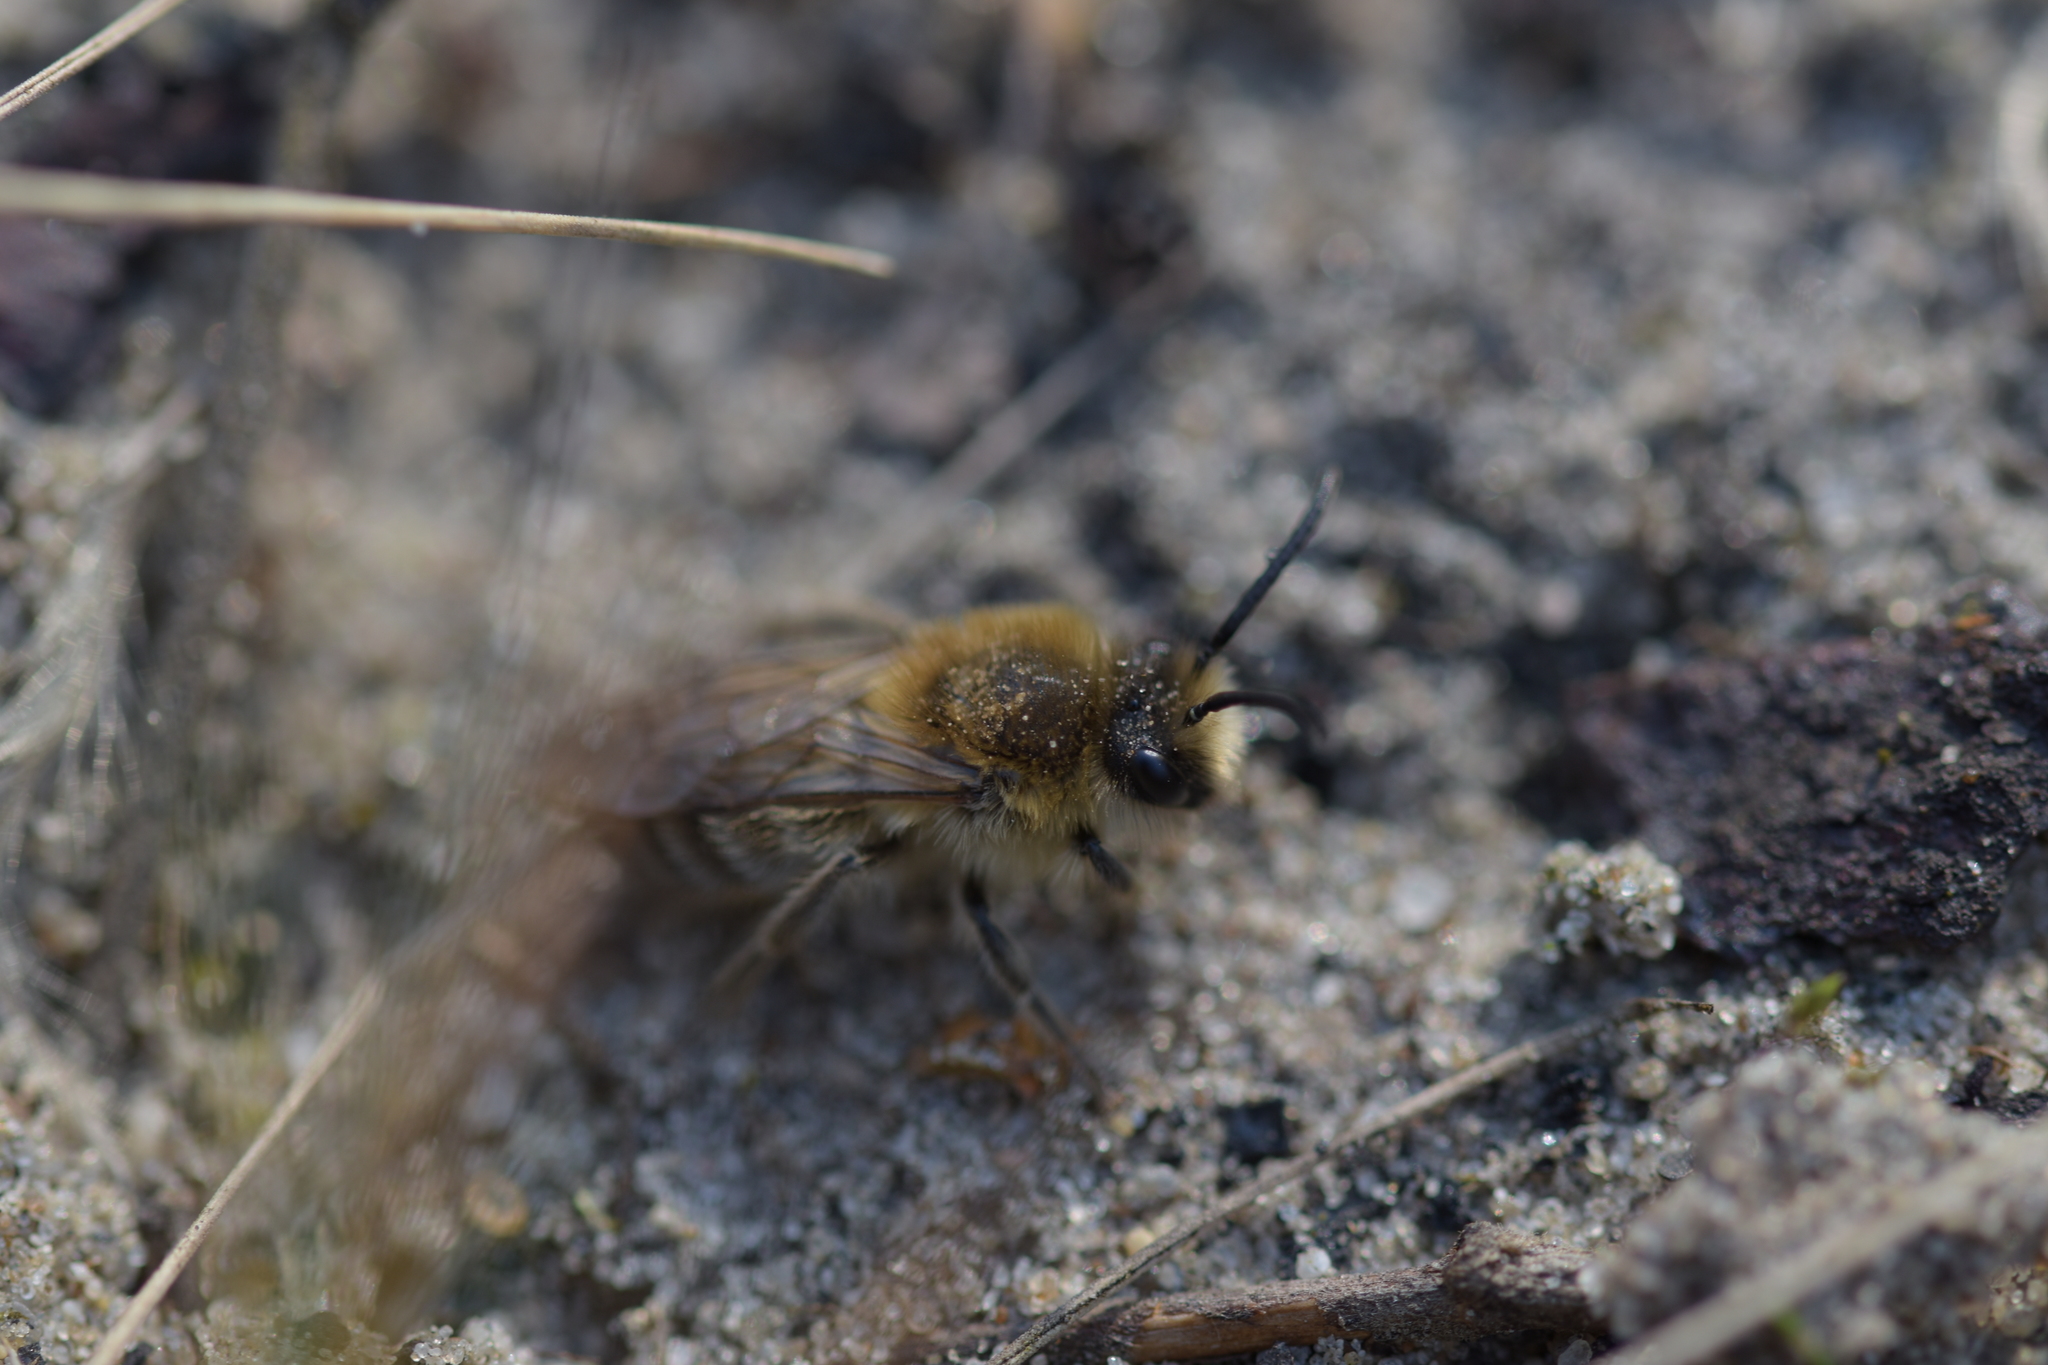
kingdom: Animalia
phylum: Arthropoda
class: Insecta
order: Hymenoptera
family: Colletidae
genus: Colletes
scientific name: Colletes cunicularius
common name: Early colletes
